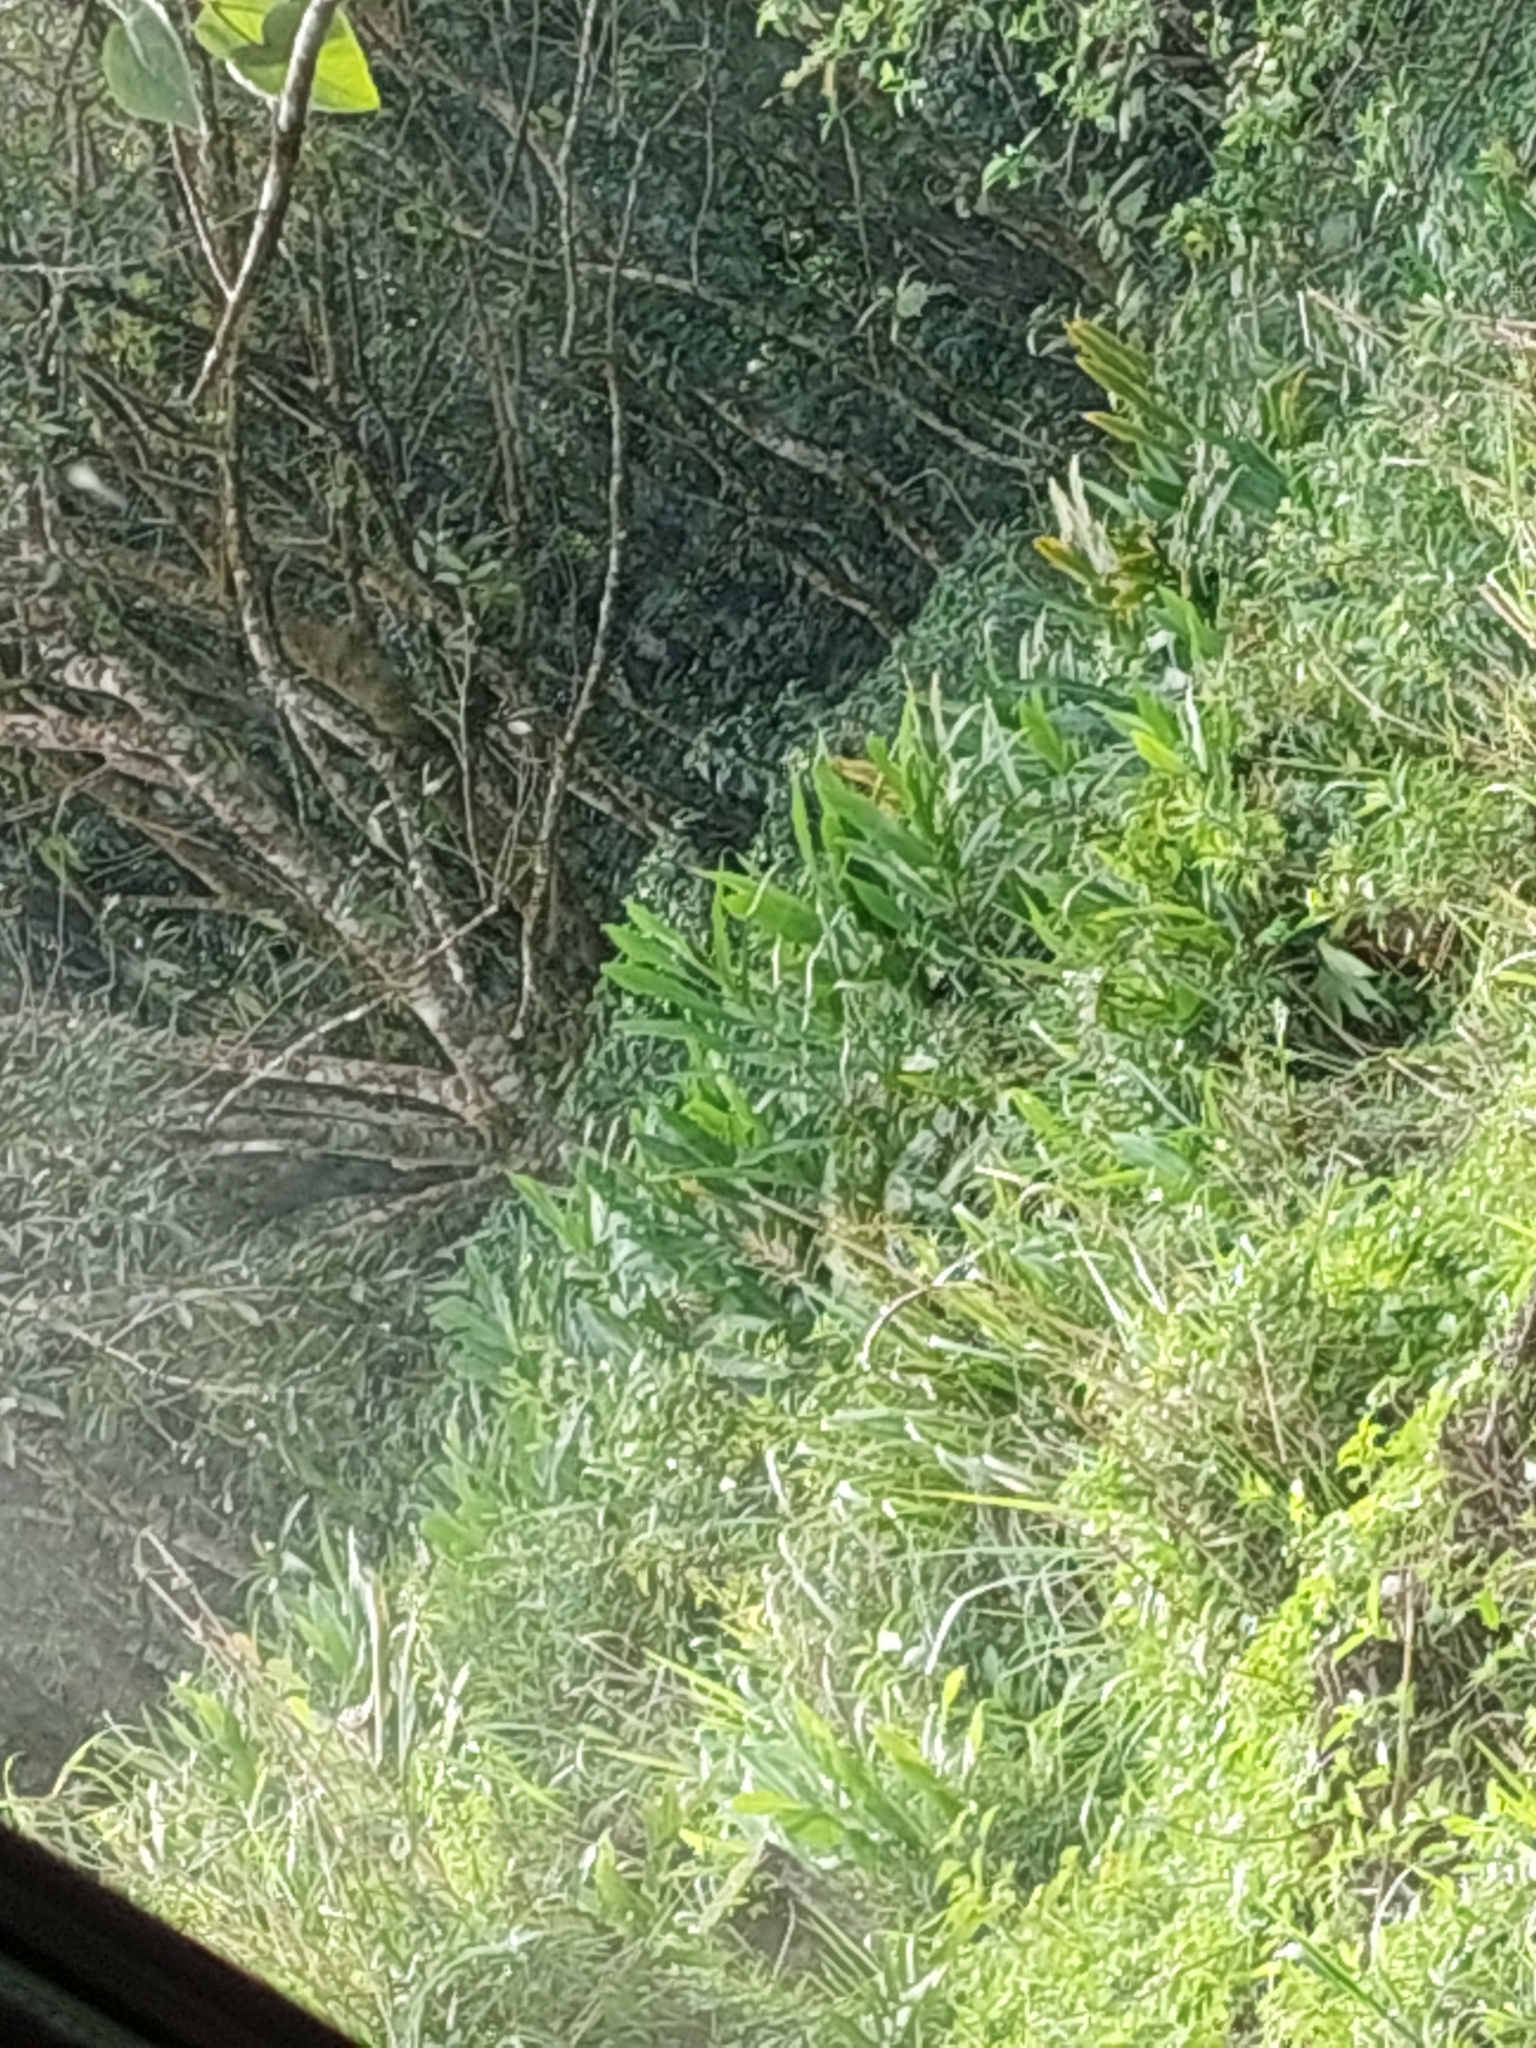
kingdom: Plantae
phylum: Tracheophyta
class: Liliopsida
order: Zingiberales
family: Zingiberaceae
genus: Hedychium
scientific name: Hedychium coronarium
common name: White garland-lily
